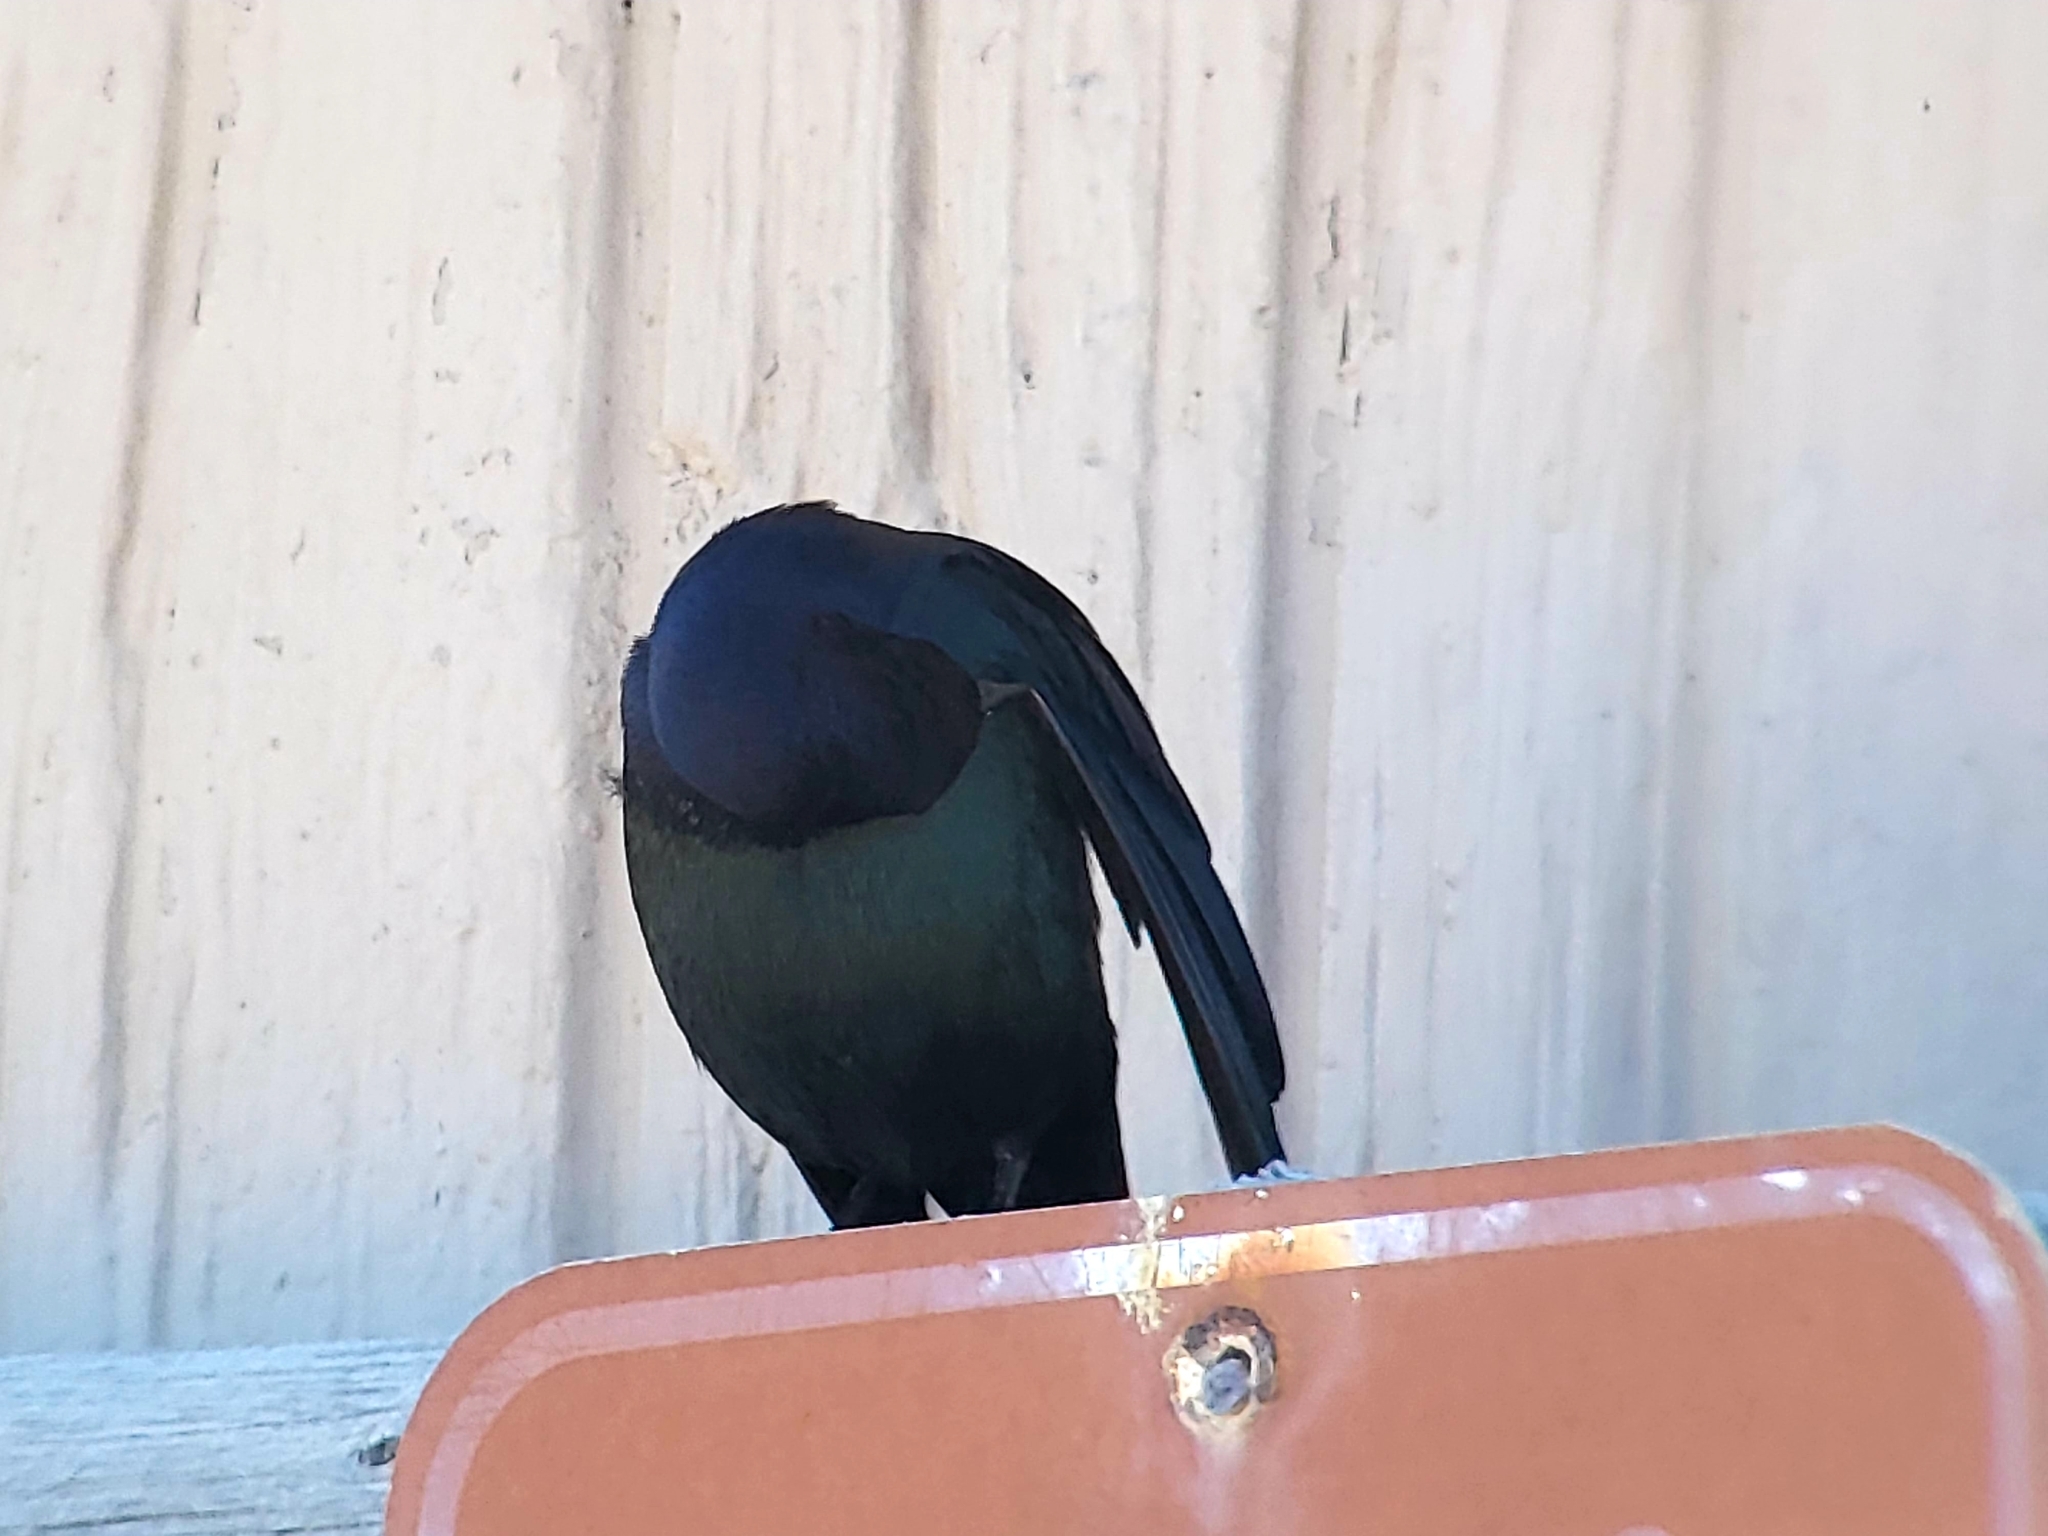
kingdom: Animalia
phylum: Chordata
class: Aves
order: Passeriformes
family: Icteridae
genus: Euphagus
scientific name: Euphagus cyanocephalus
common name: Brewer's blackbird
